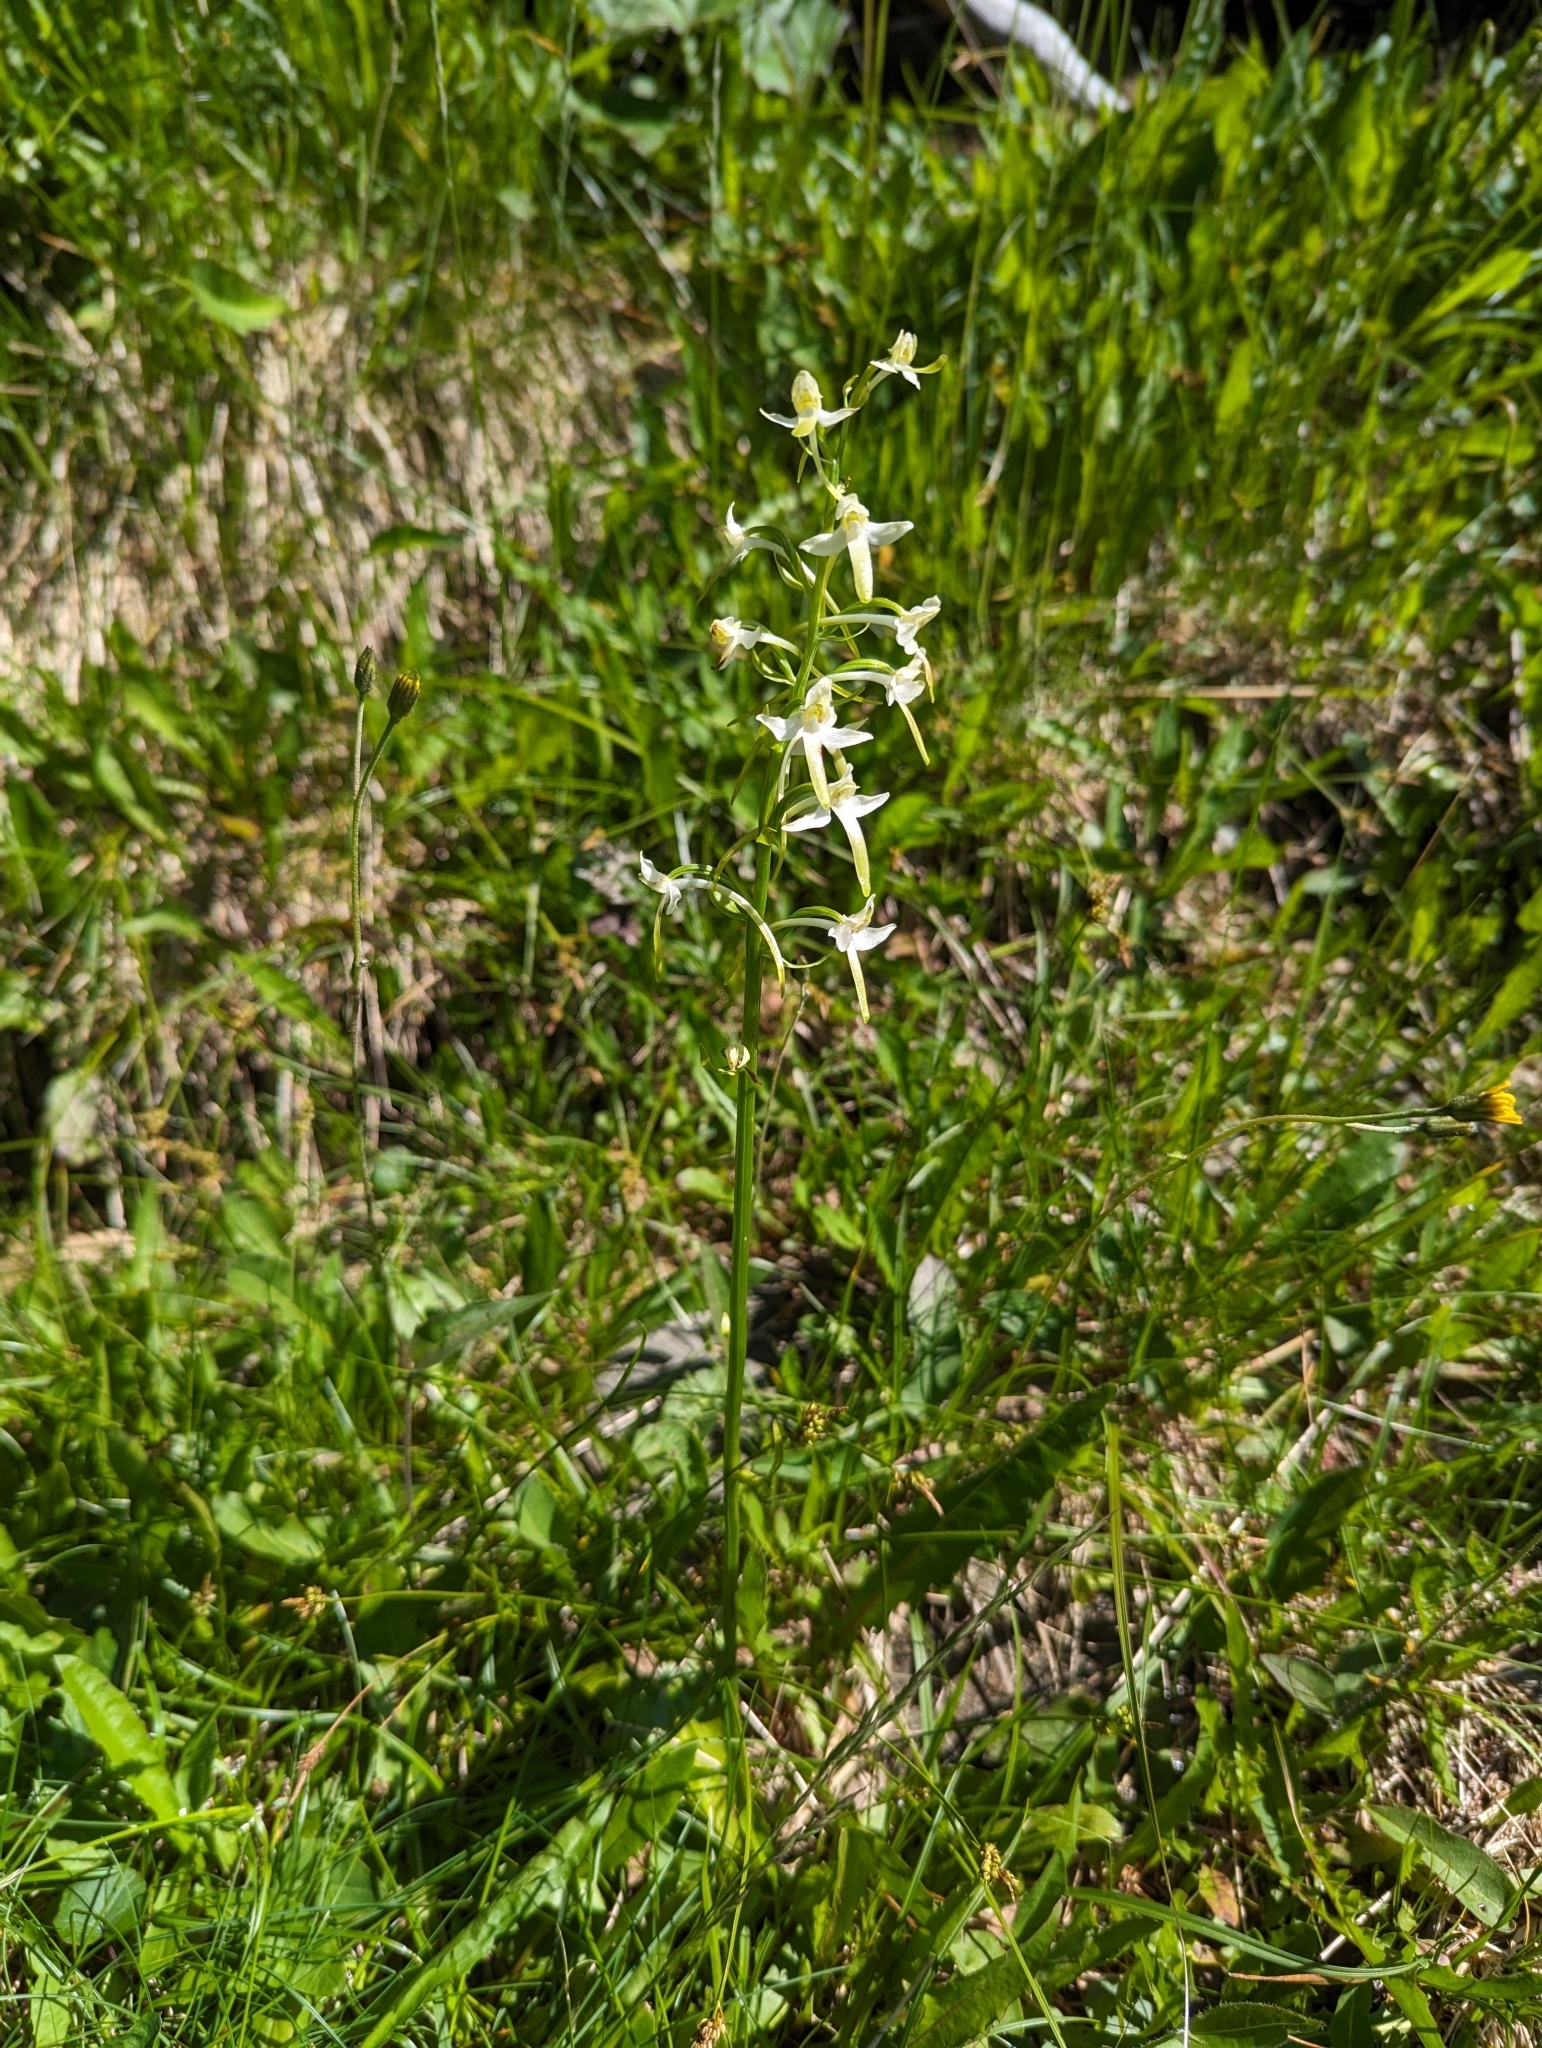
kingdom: Plantae
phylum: Tracheophyta
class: Liliopsida
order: Asparagales
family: Orchidaceae
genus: Platanthera
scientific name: Platanthera chlorantha
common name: Greater butterfly-orchid
